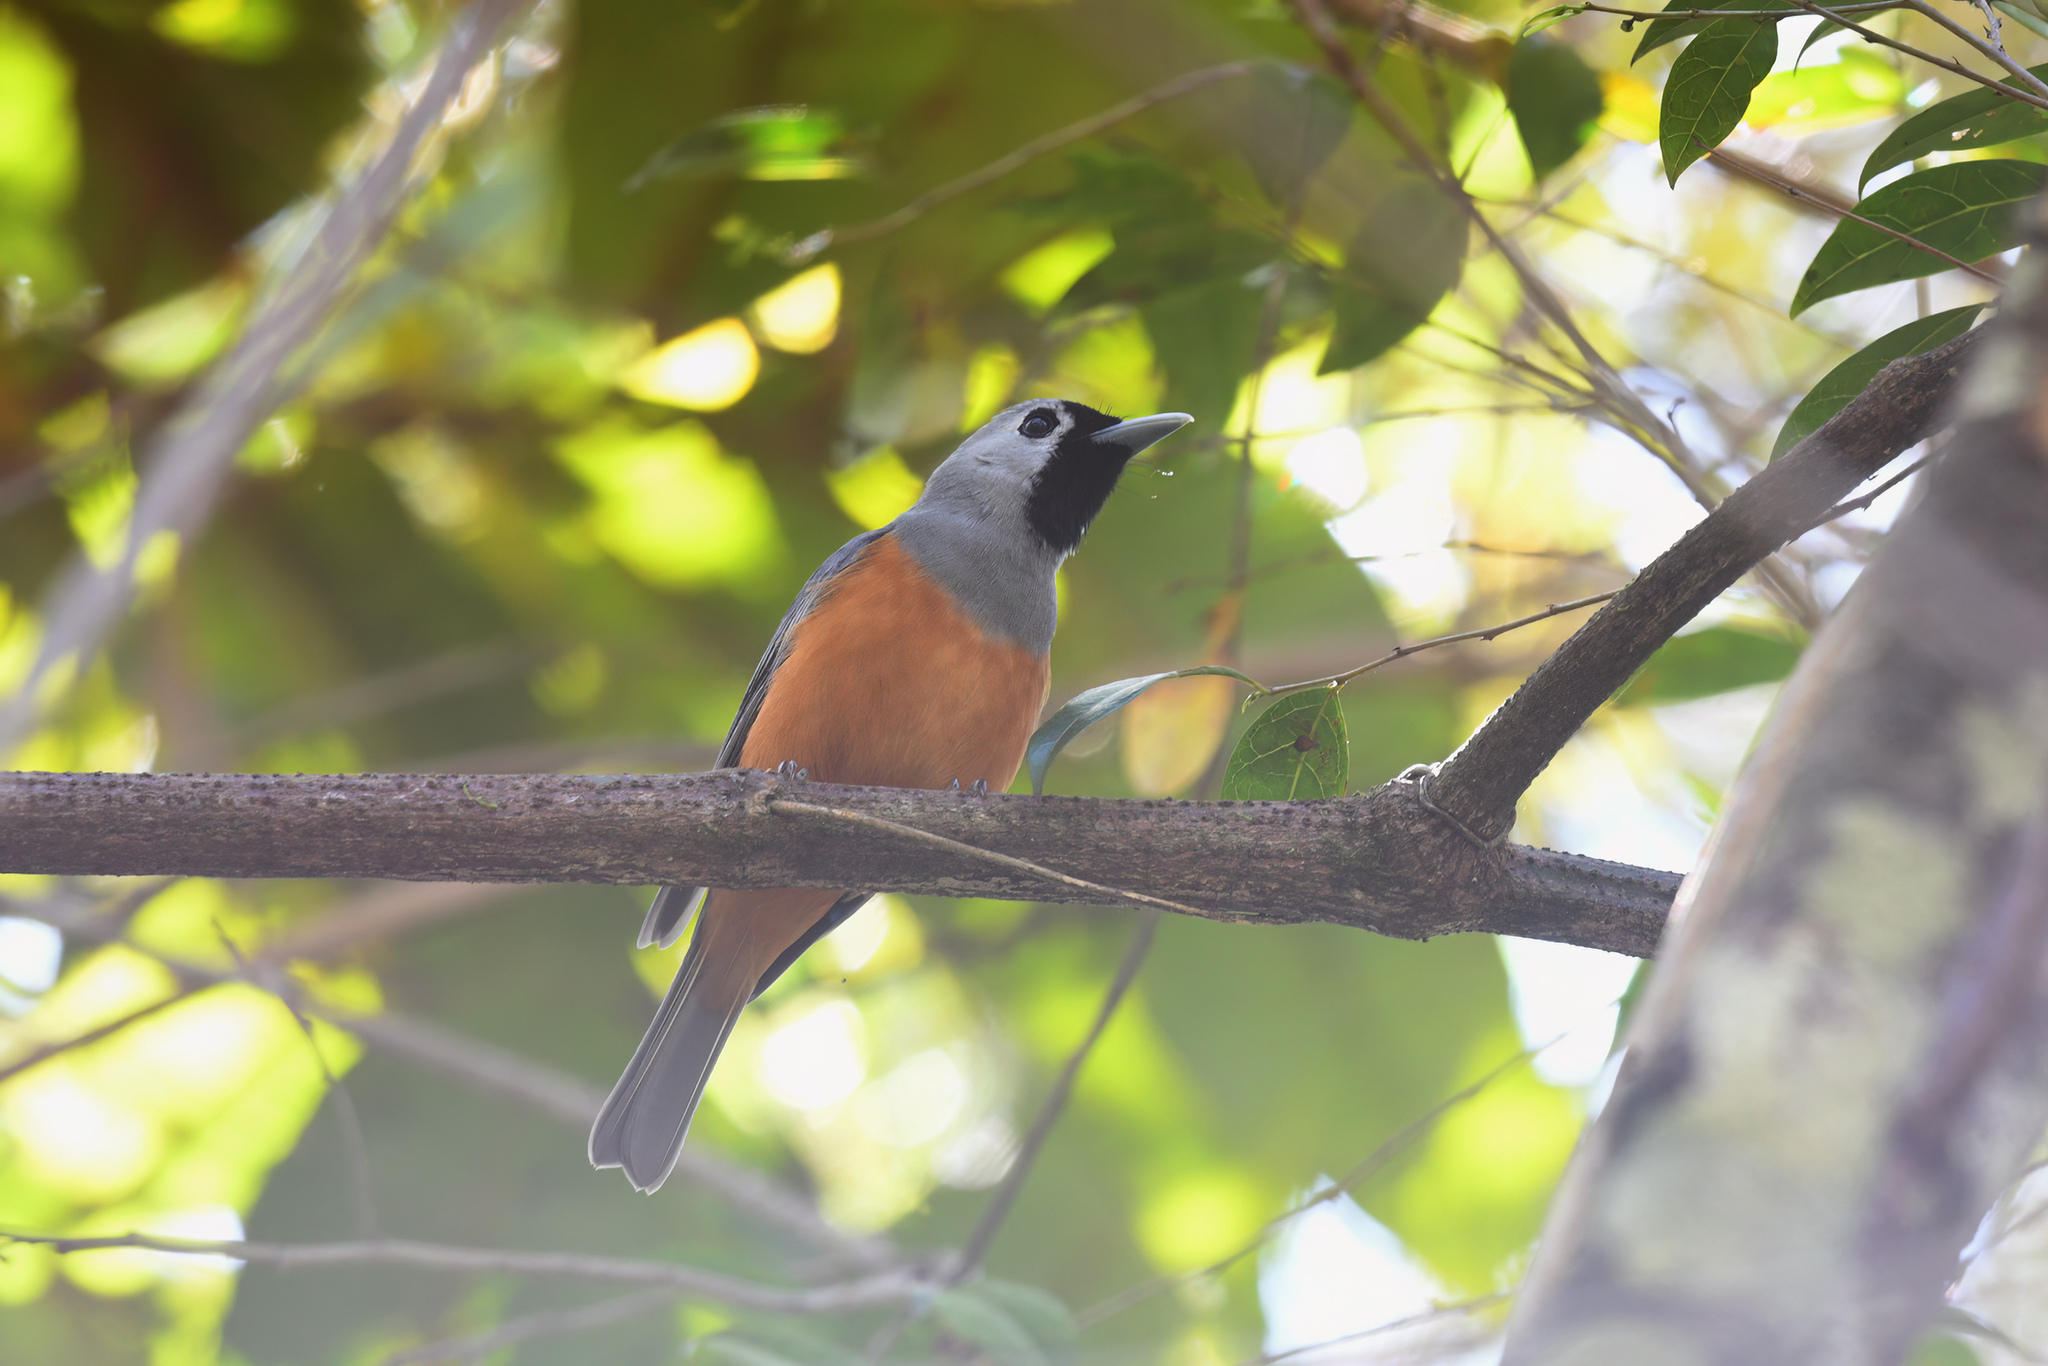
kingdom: Animalia
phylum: Chordata
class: Aves
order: Passeriformes
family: Monarchidae
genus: Monarcha
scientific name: Monarcha melanopsis
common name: Black-faced monarch
